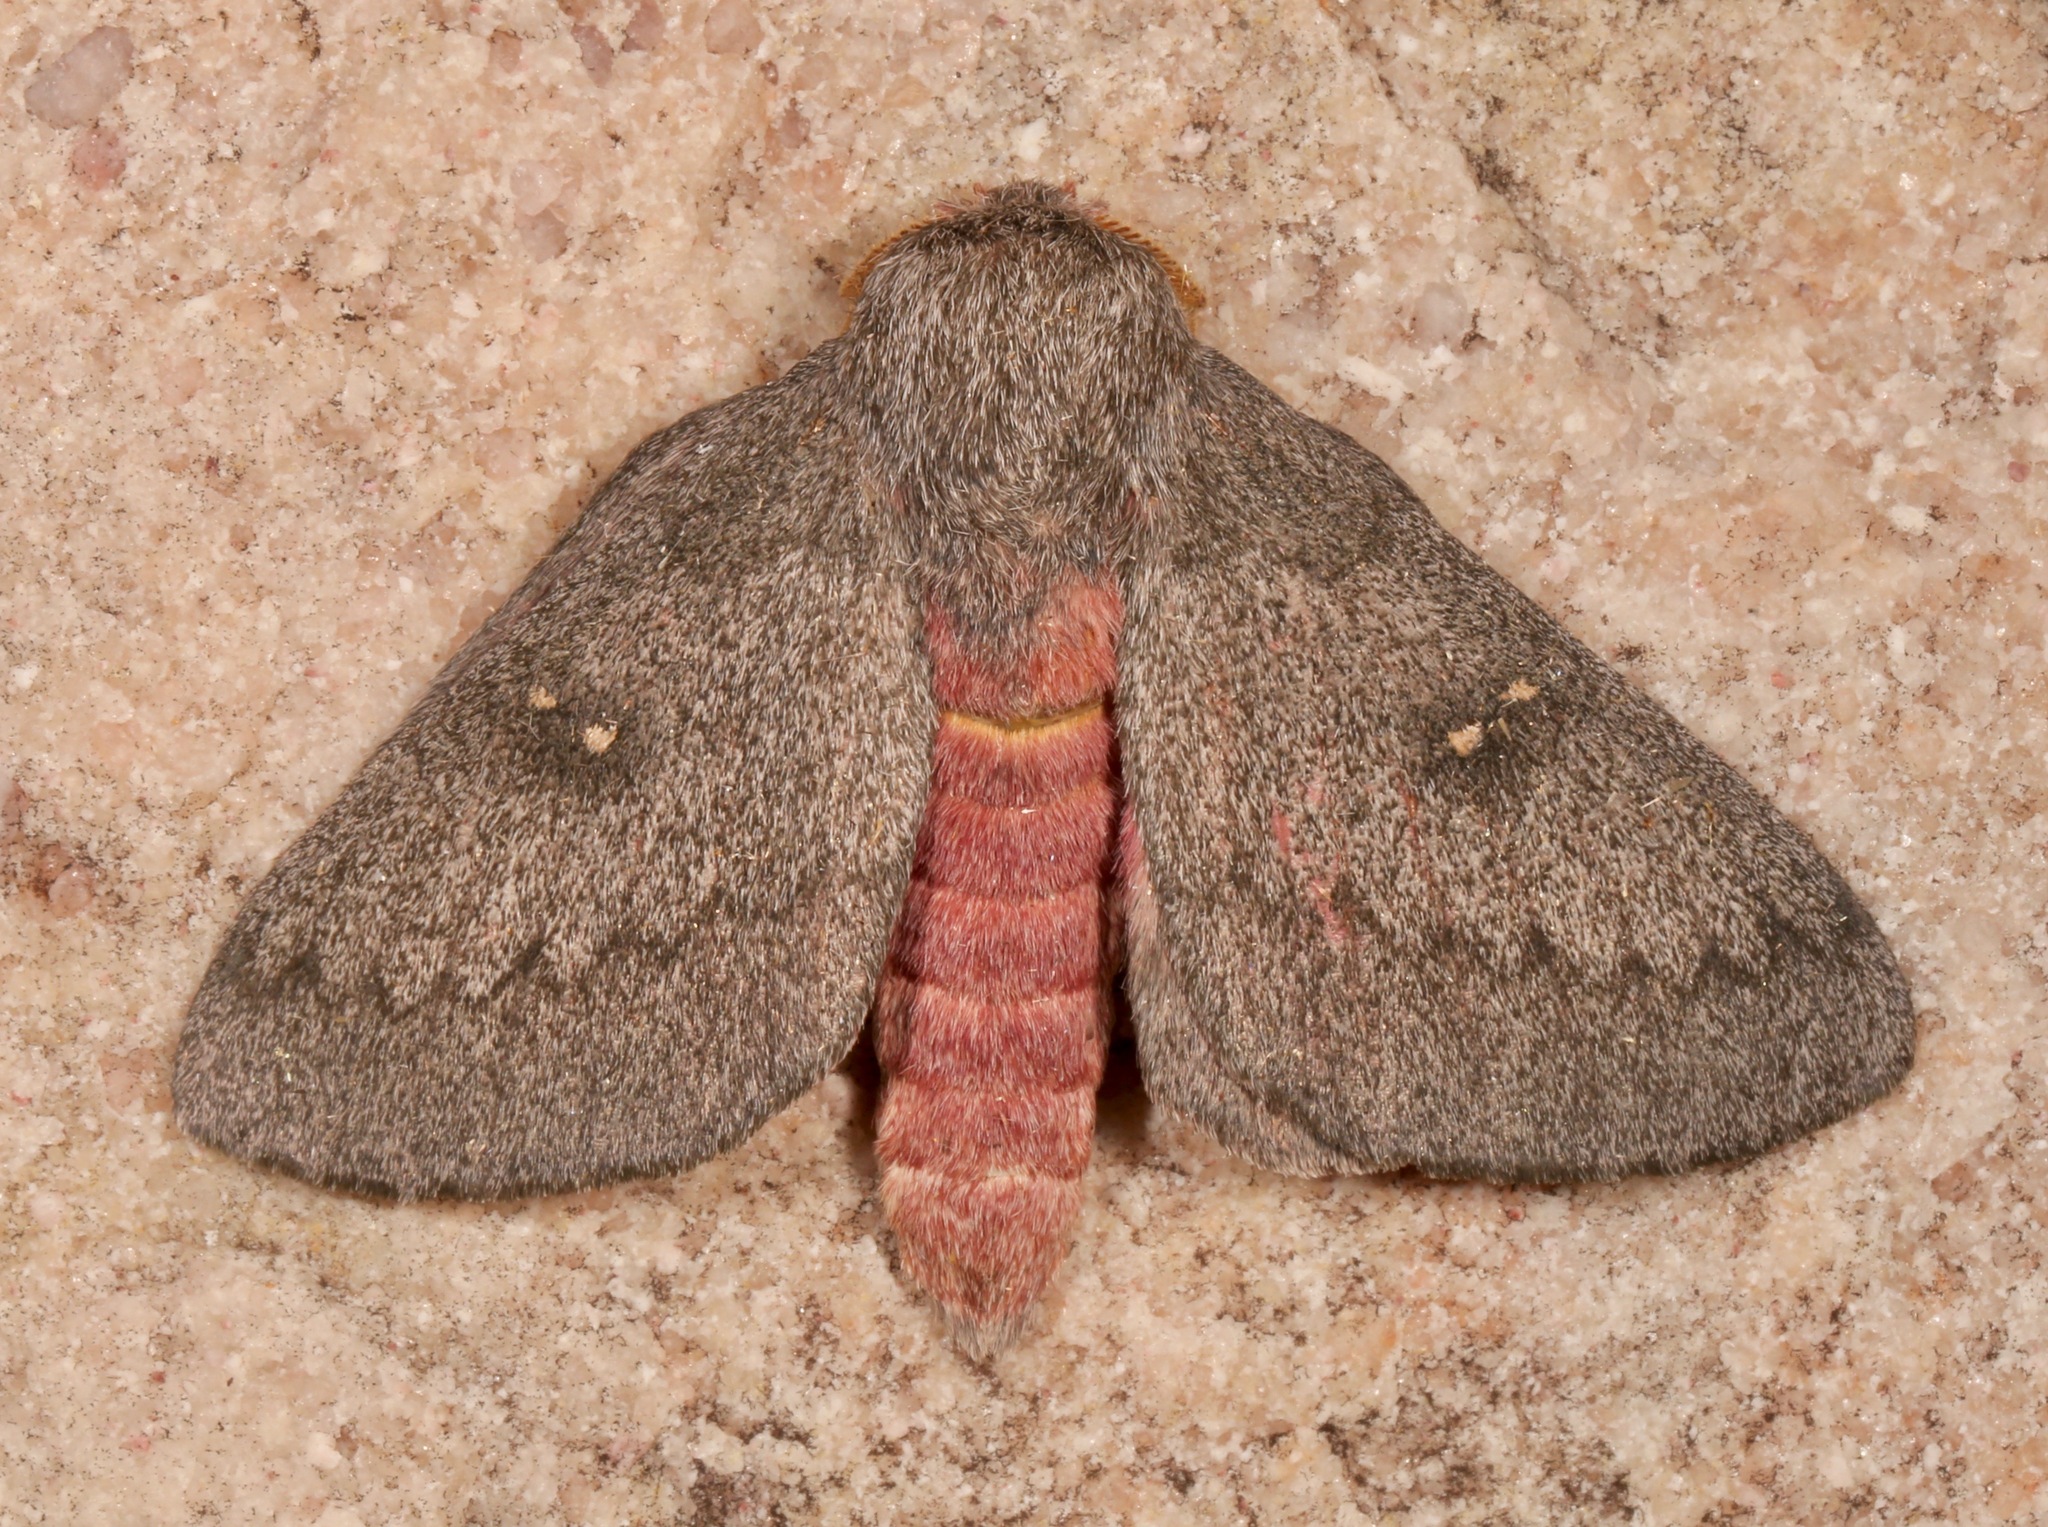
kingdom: Animalia
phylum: Arthropoda
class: Insecta
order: Lepidoptera
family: Saturniidae
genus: Syssphinx
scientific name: Syssphinx hubbardi
